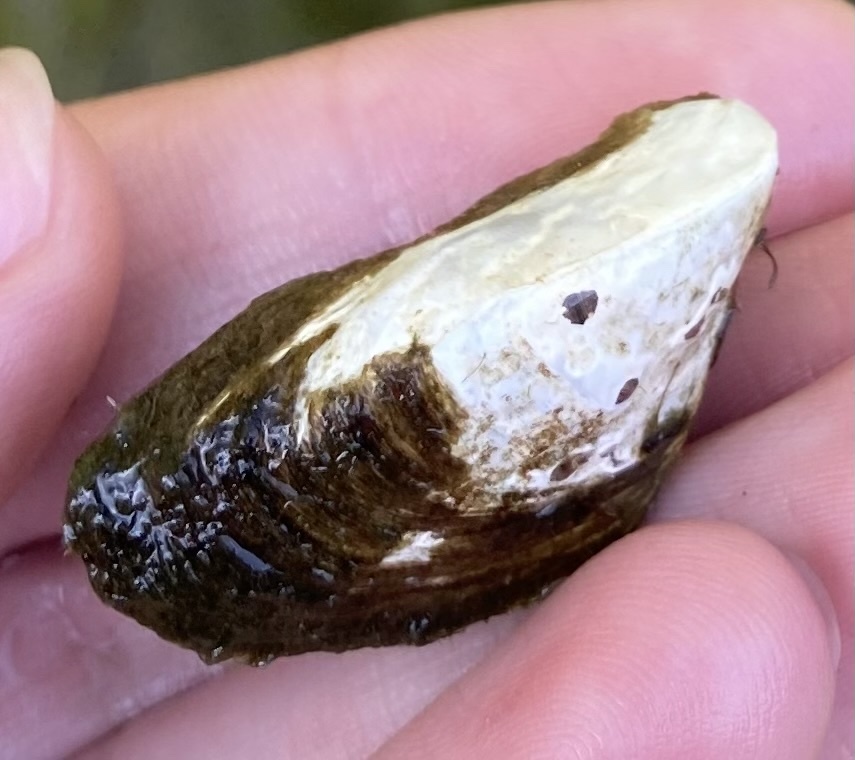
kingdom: Animalia
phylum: Mollusca
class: Bivalvia
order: Myida
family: Dreissenidae
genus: Dreissena
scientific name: Dreissena polymorpha
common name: Zebra mussel
